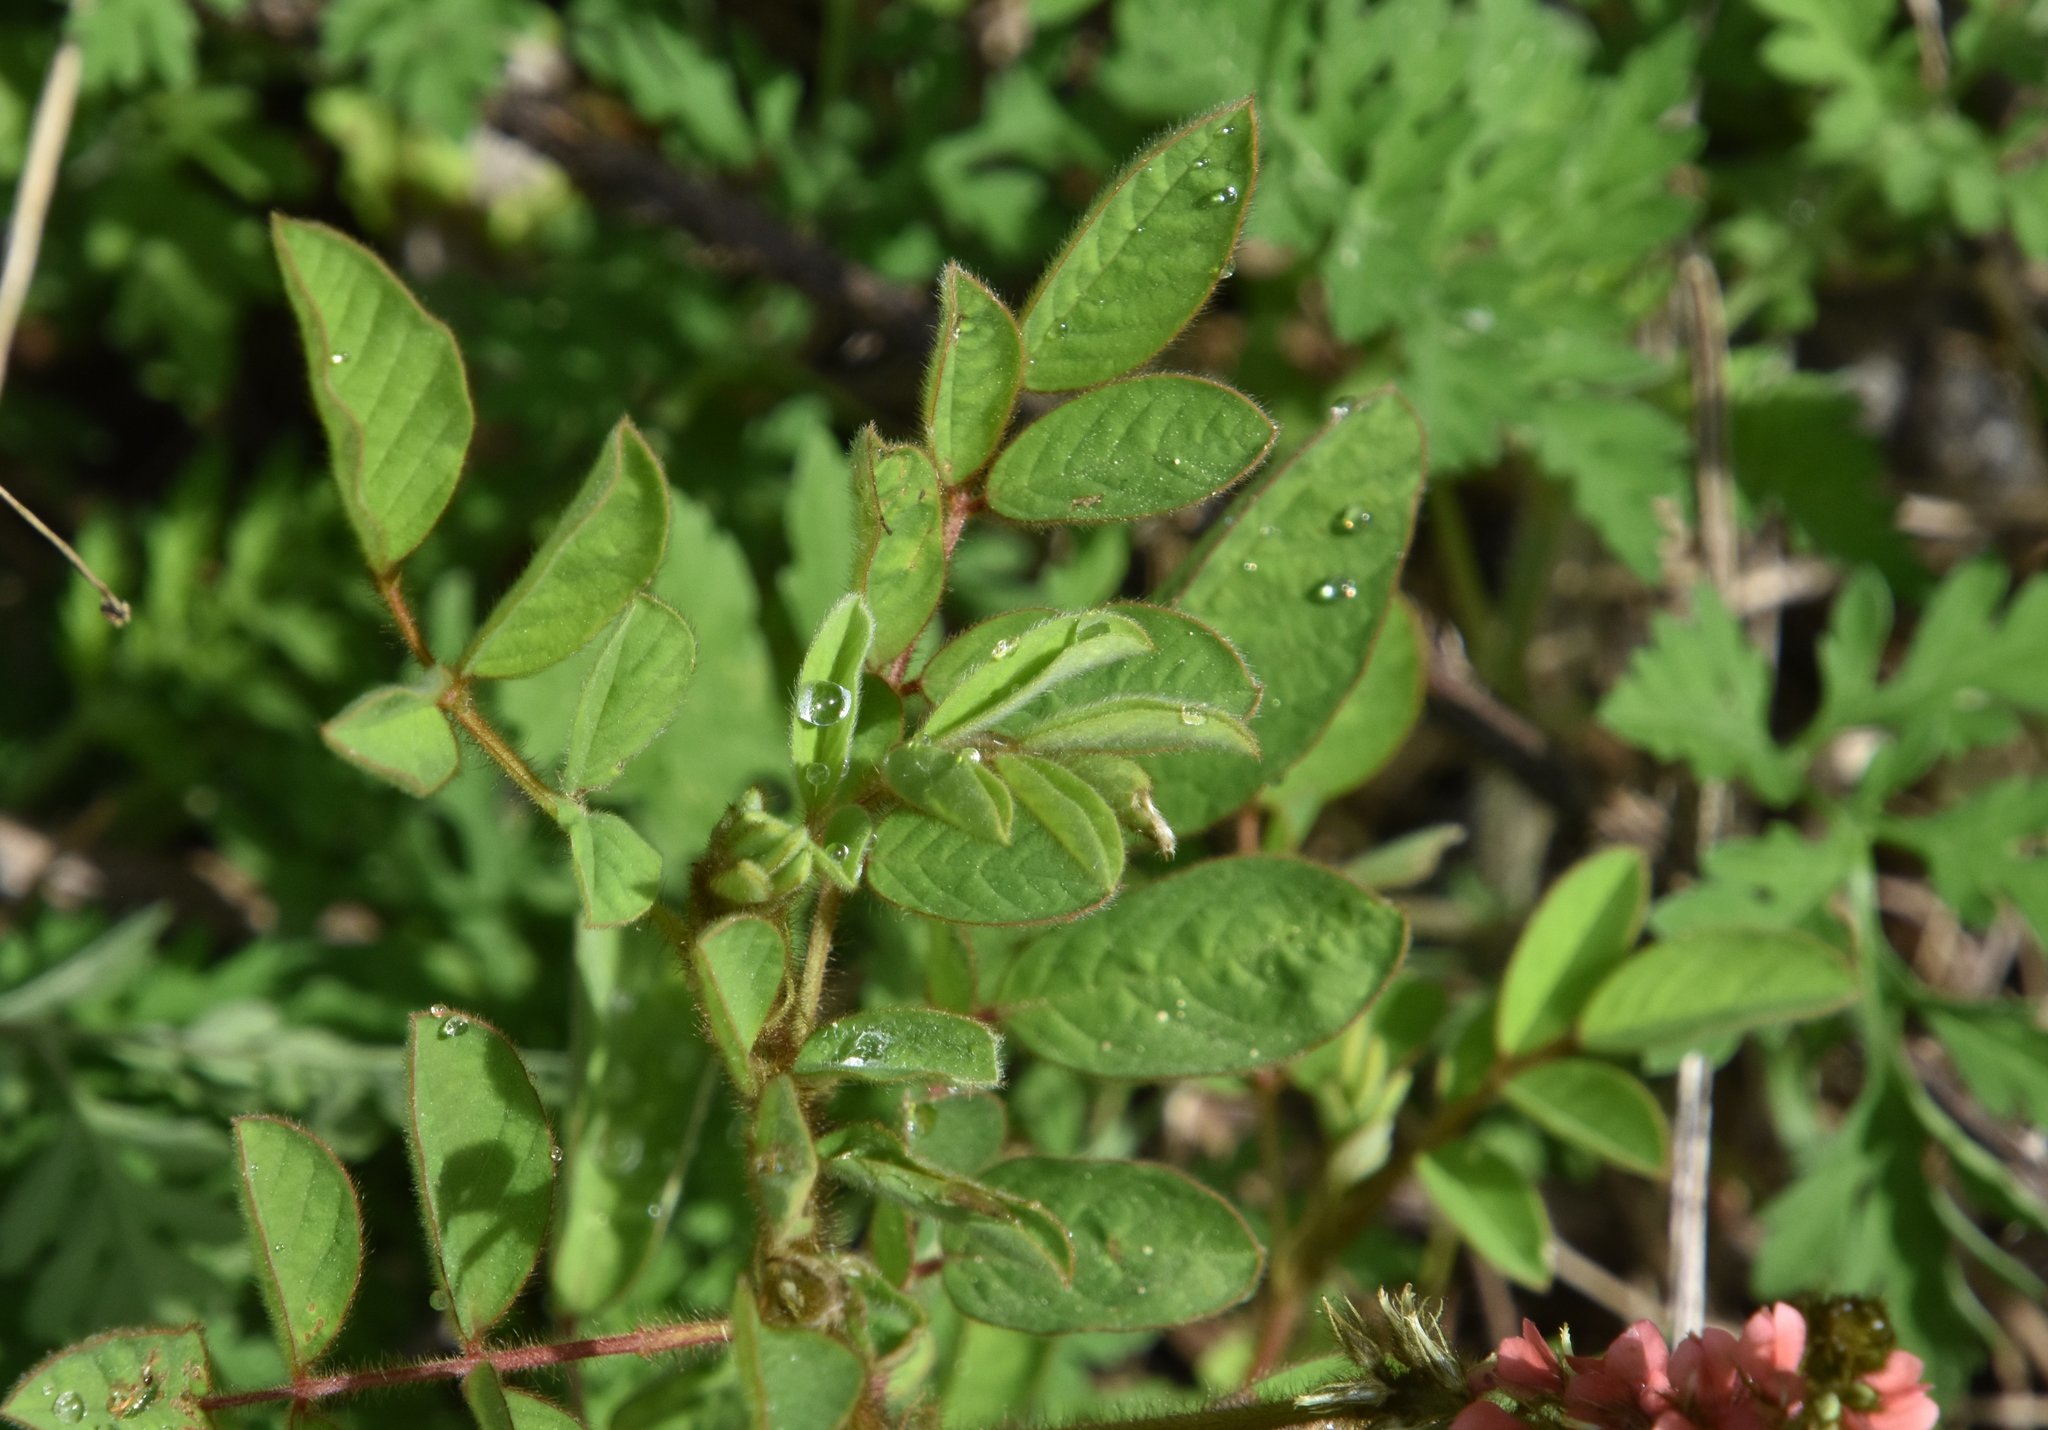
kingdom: Plantae
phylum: Tracheophyta
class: Magnoliopsida
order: Fabales
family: Fabaceae
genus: Indigofera
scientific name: Indigofera hirsuta
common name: Hairy indigo
